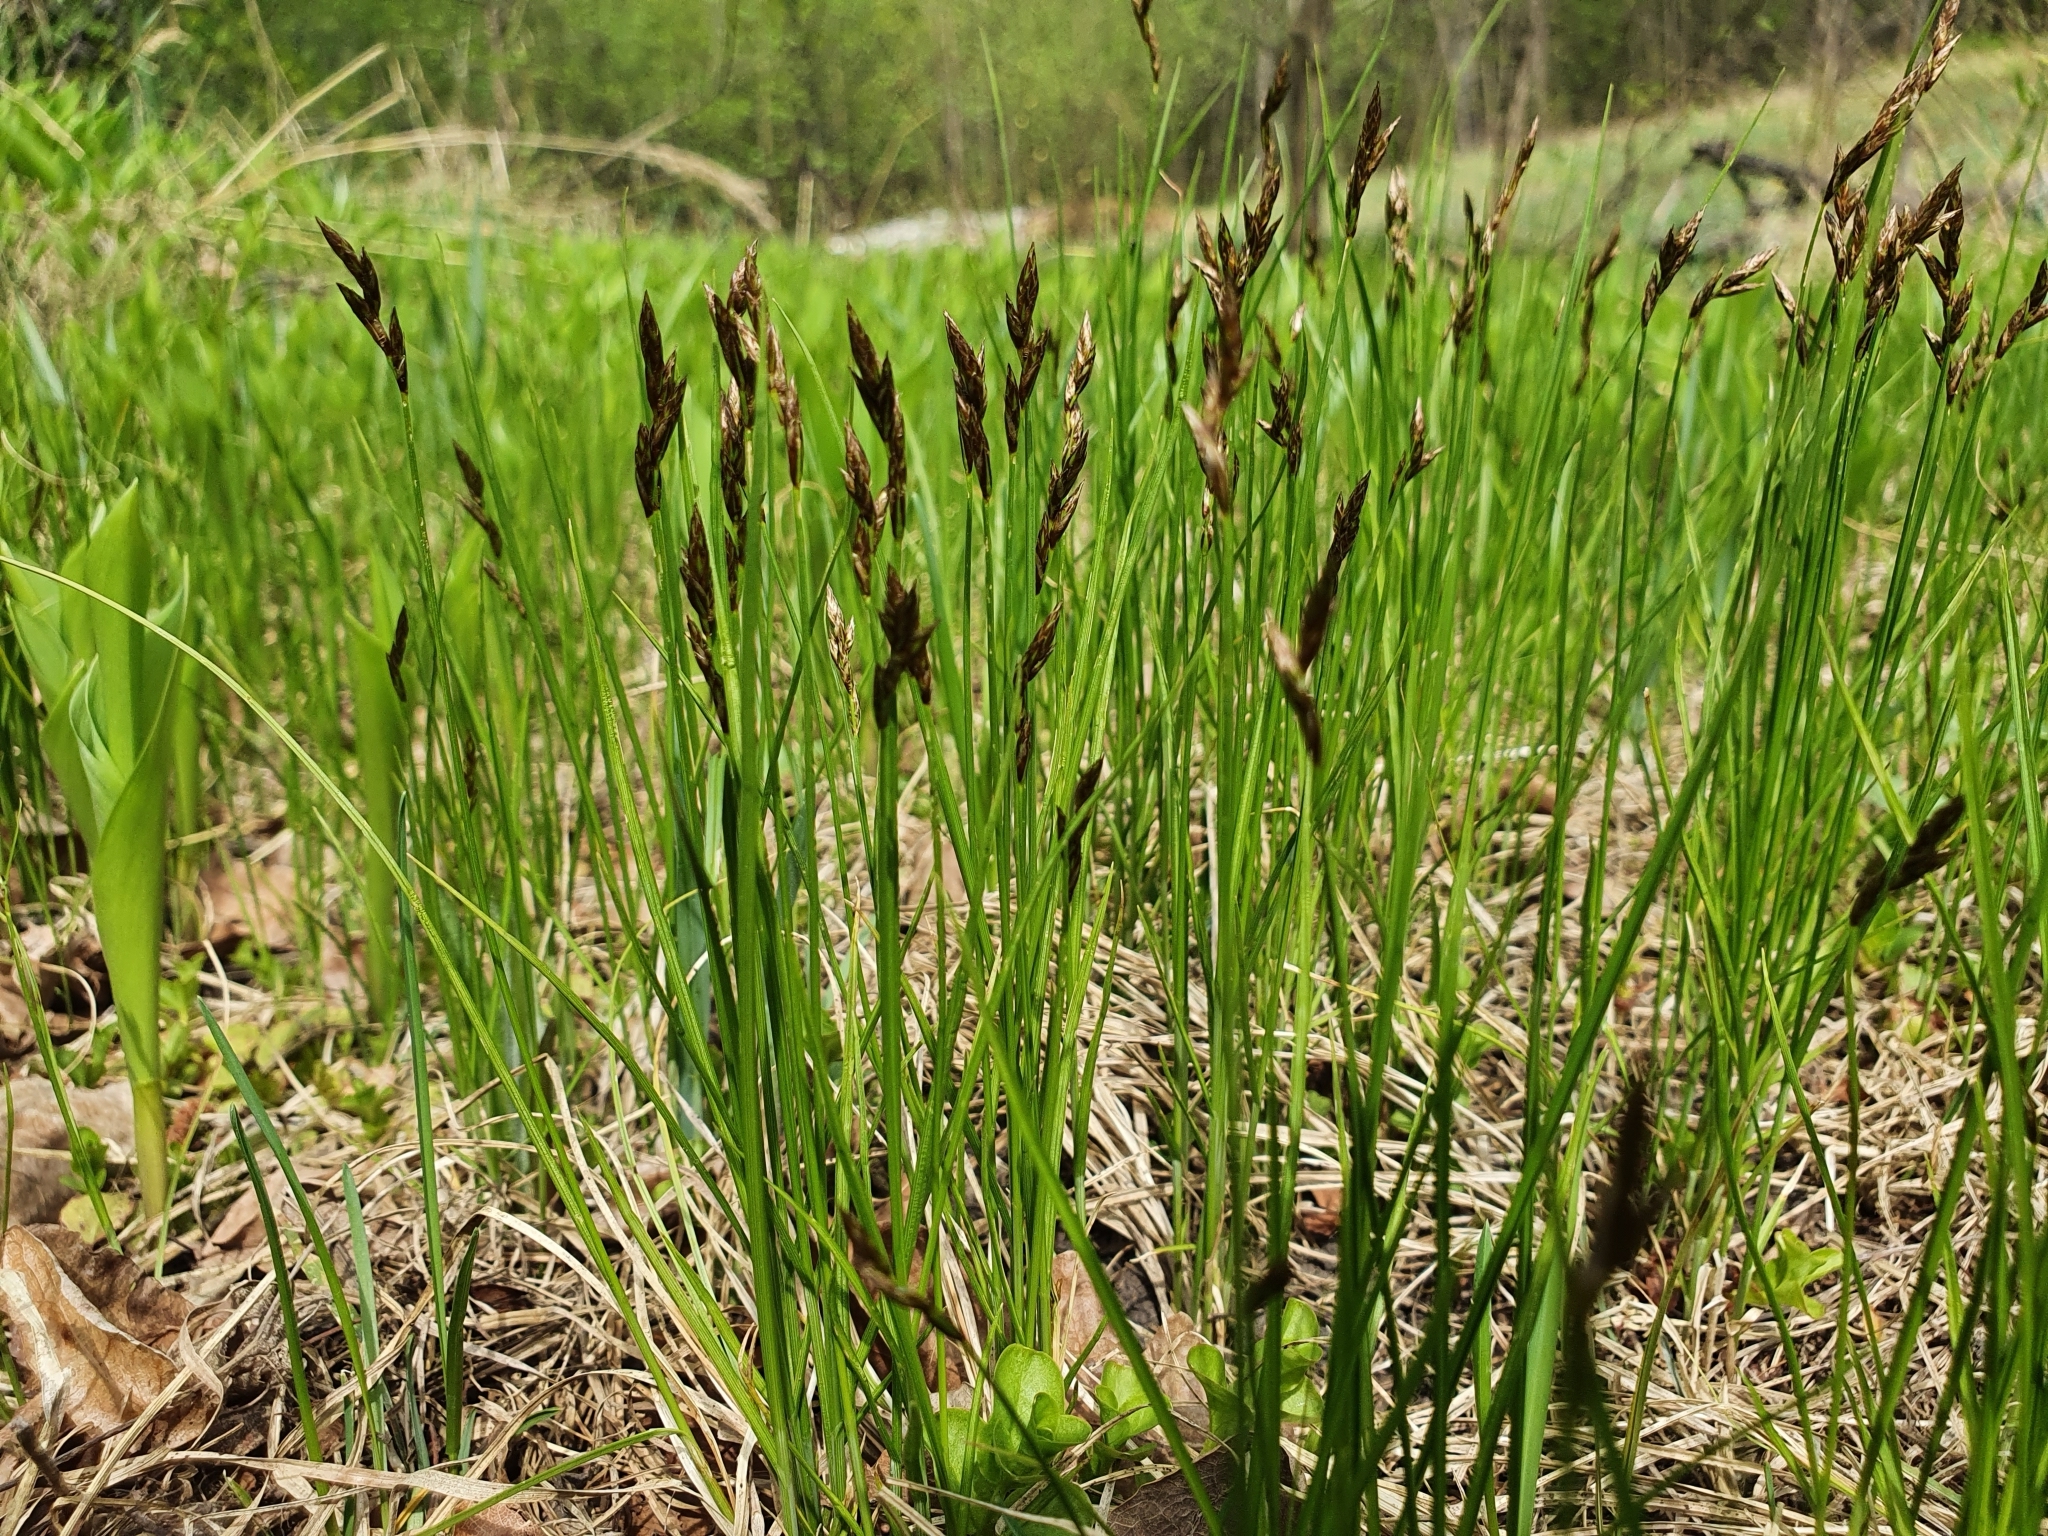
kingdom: Plantae
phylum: Tracheophyta
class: Liliopsida
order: Poales
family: Cyperaceae
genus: Carex
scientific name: Carex praecox
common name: Early sedge
